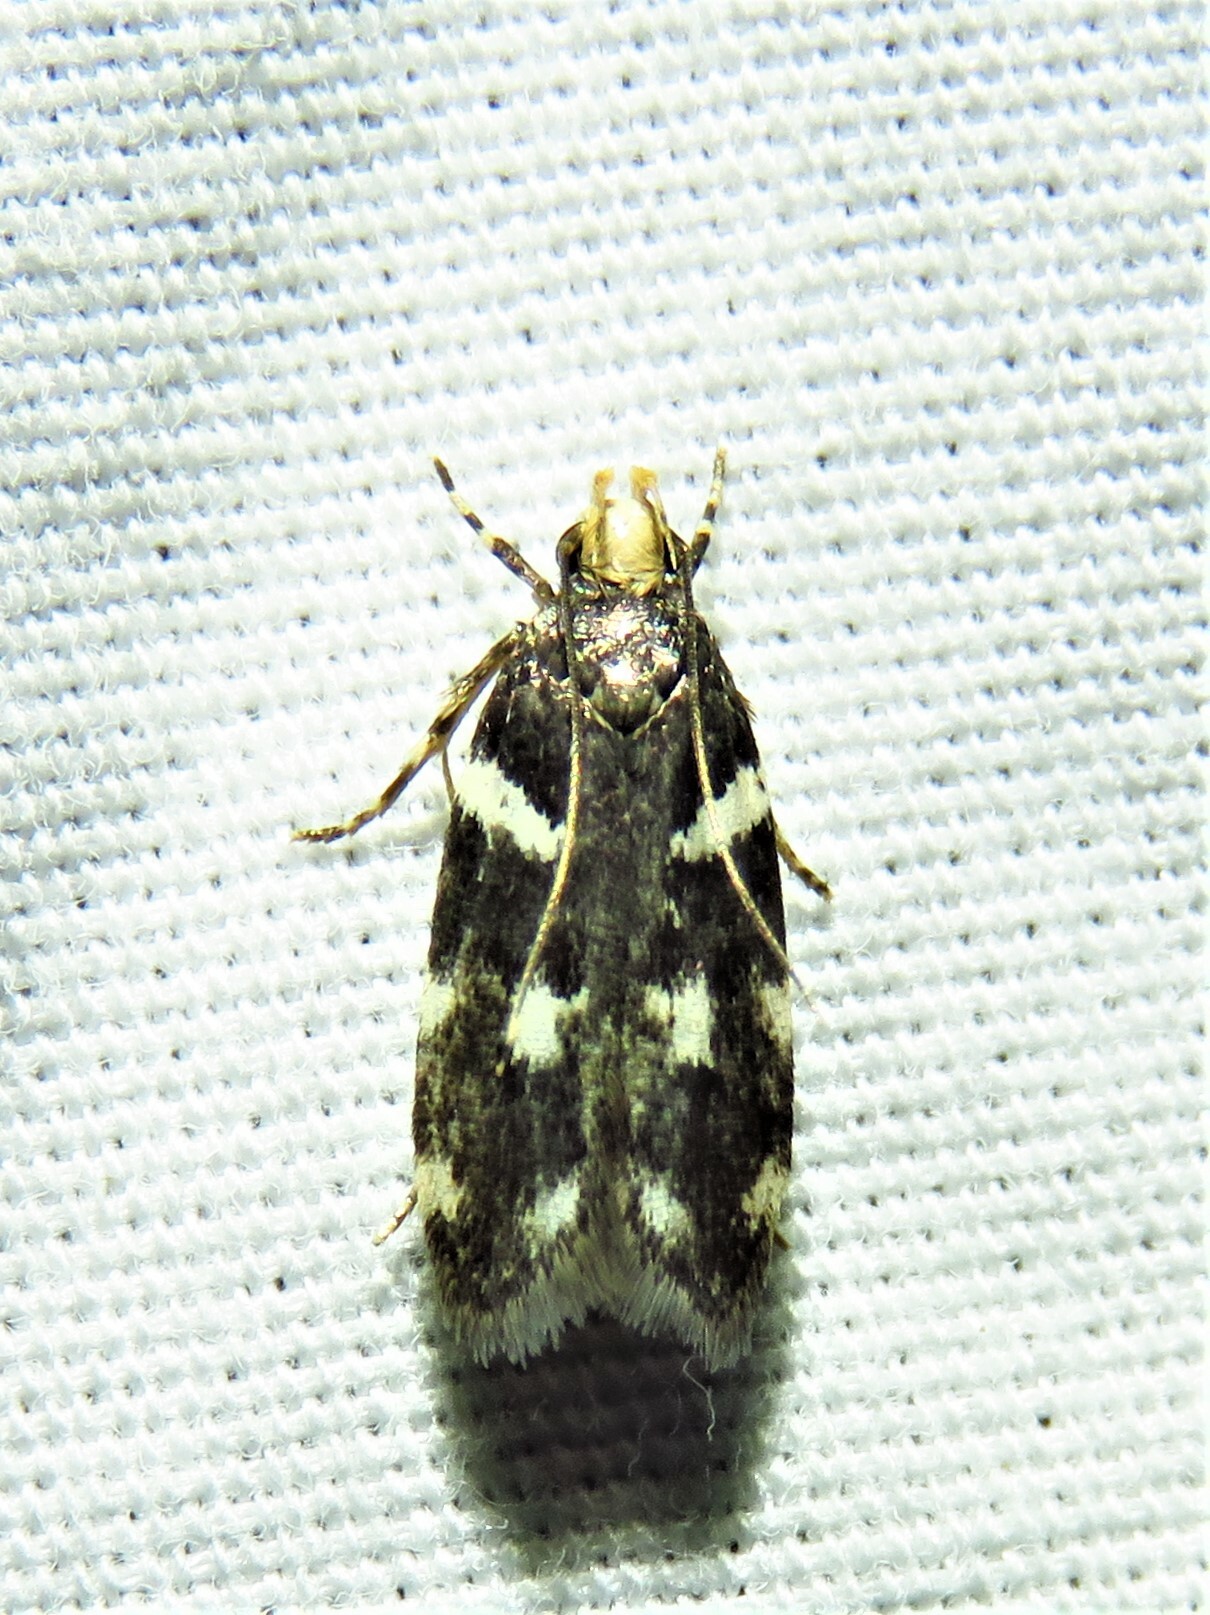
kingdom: Animalia
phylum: Arthropoda
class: Insecta
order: Lepidoptera
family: Gelechiidae
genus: Fascista
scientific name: Fascista quinella
